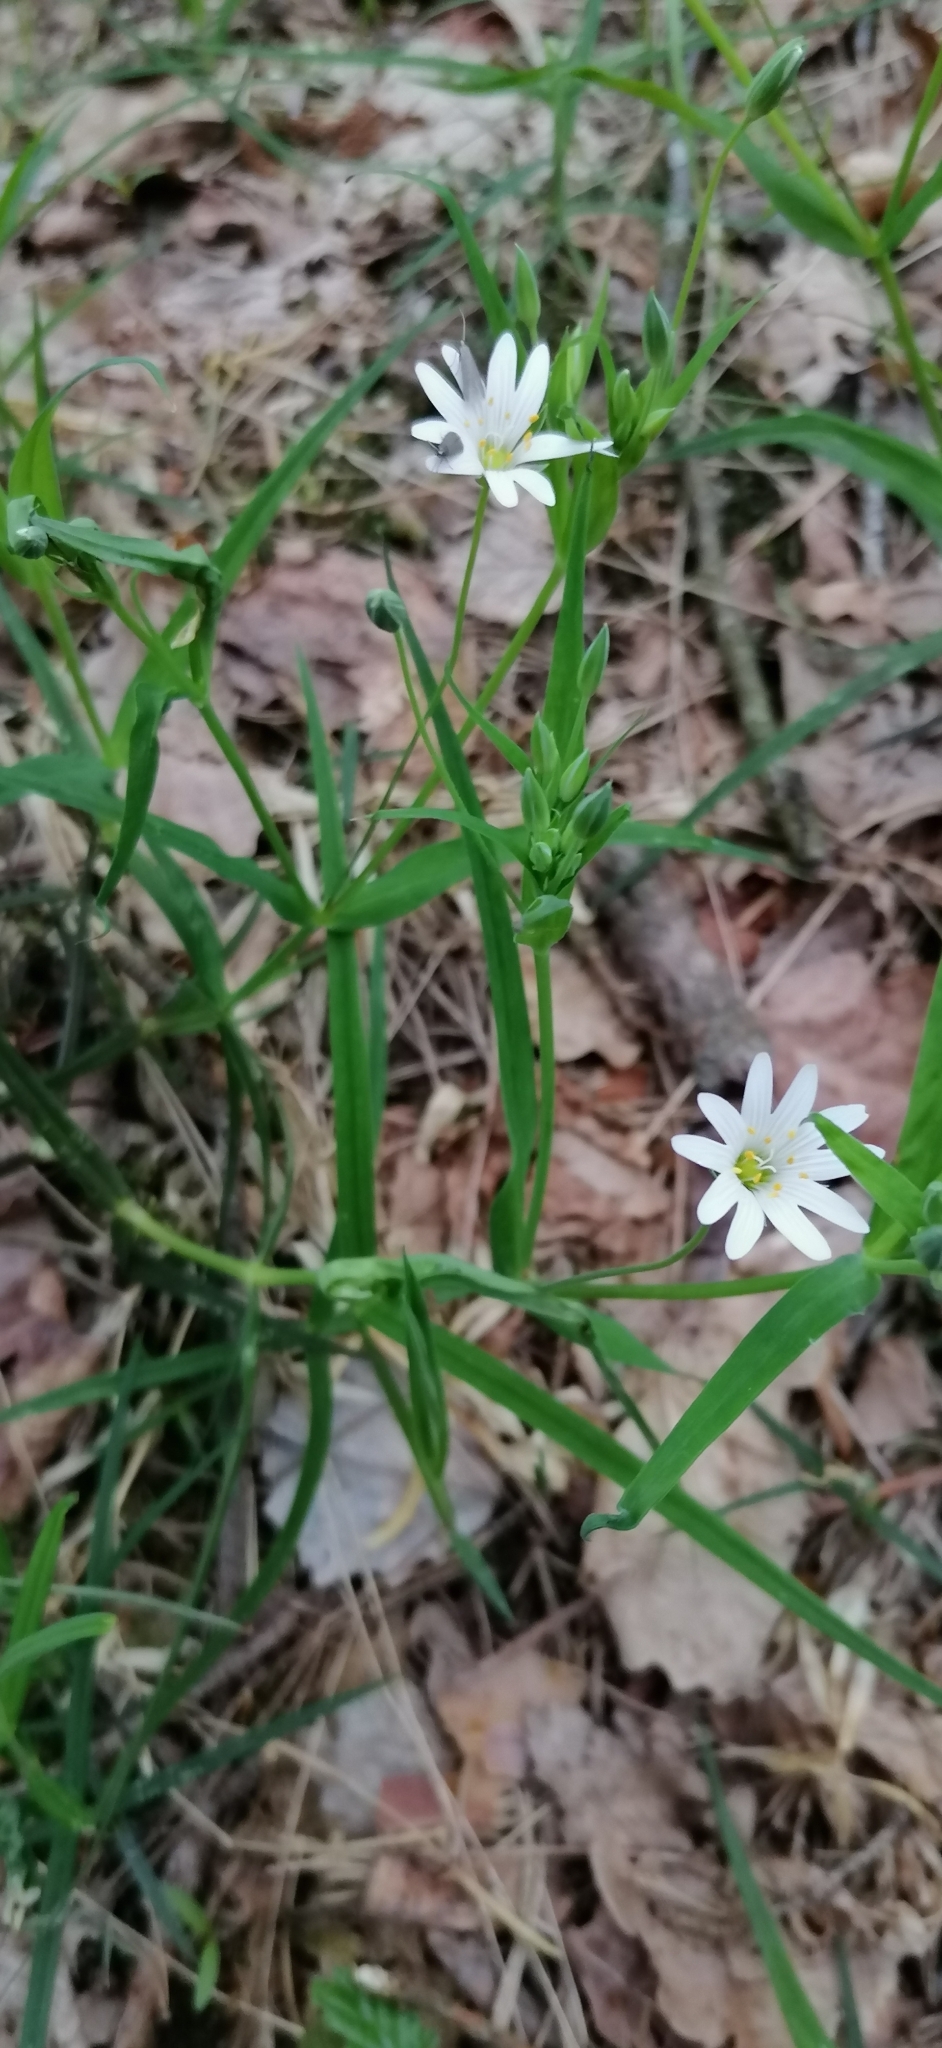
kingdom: Plantae
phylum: Tracheophyta
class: Magnoliopsida
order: Caryophyllales
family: Caryophyllaceae
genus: Rabelera
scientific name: Rabelera holostea
